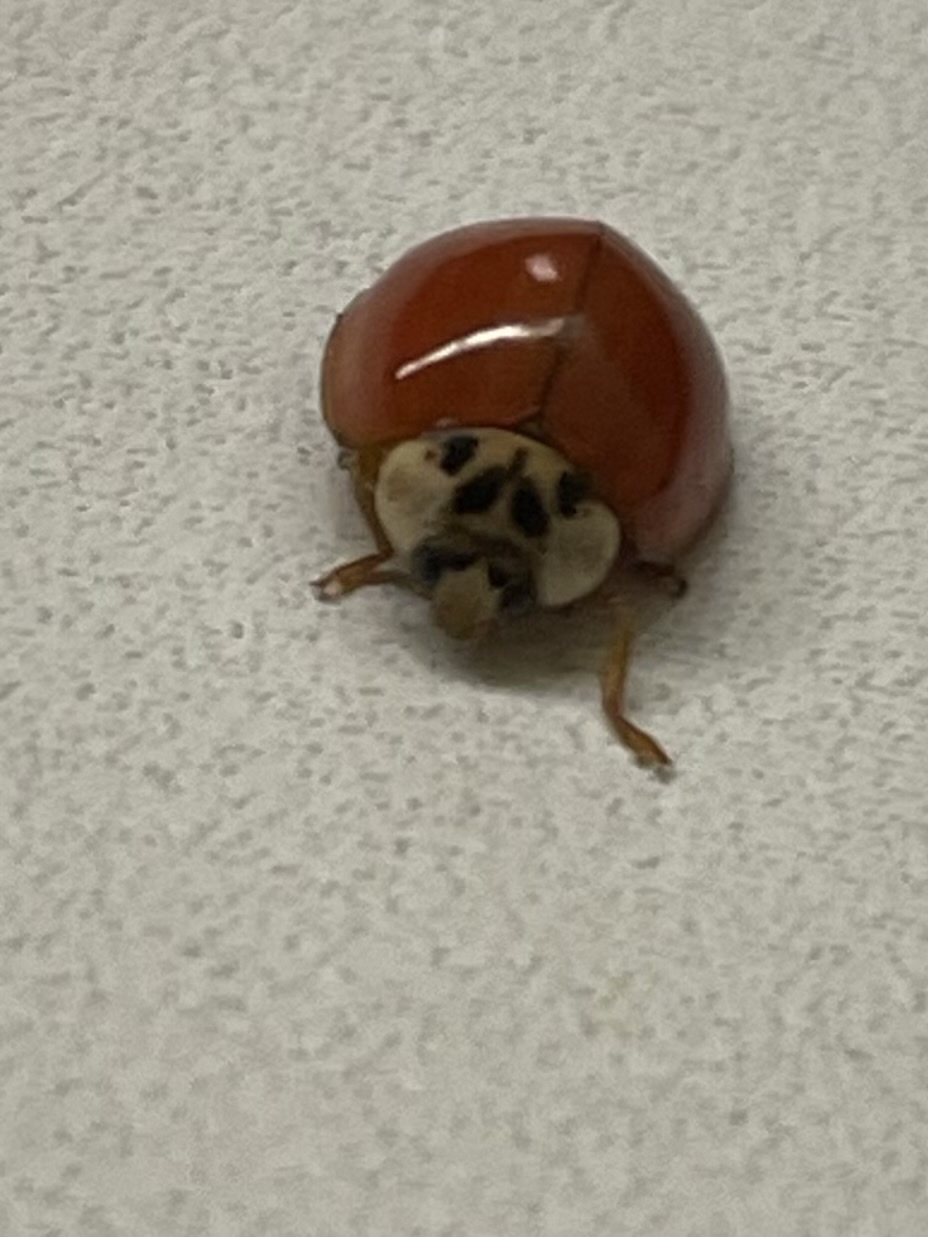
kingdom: Animalia
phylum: Arthropoda
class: Insecta
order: Coleoptera
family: Coccinellidae
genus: Harmonia
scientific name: Harmonia axyridis
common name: Harlequin ladybird
